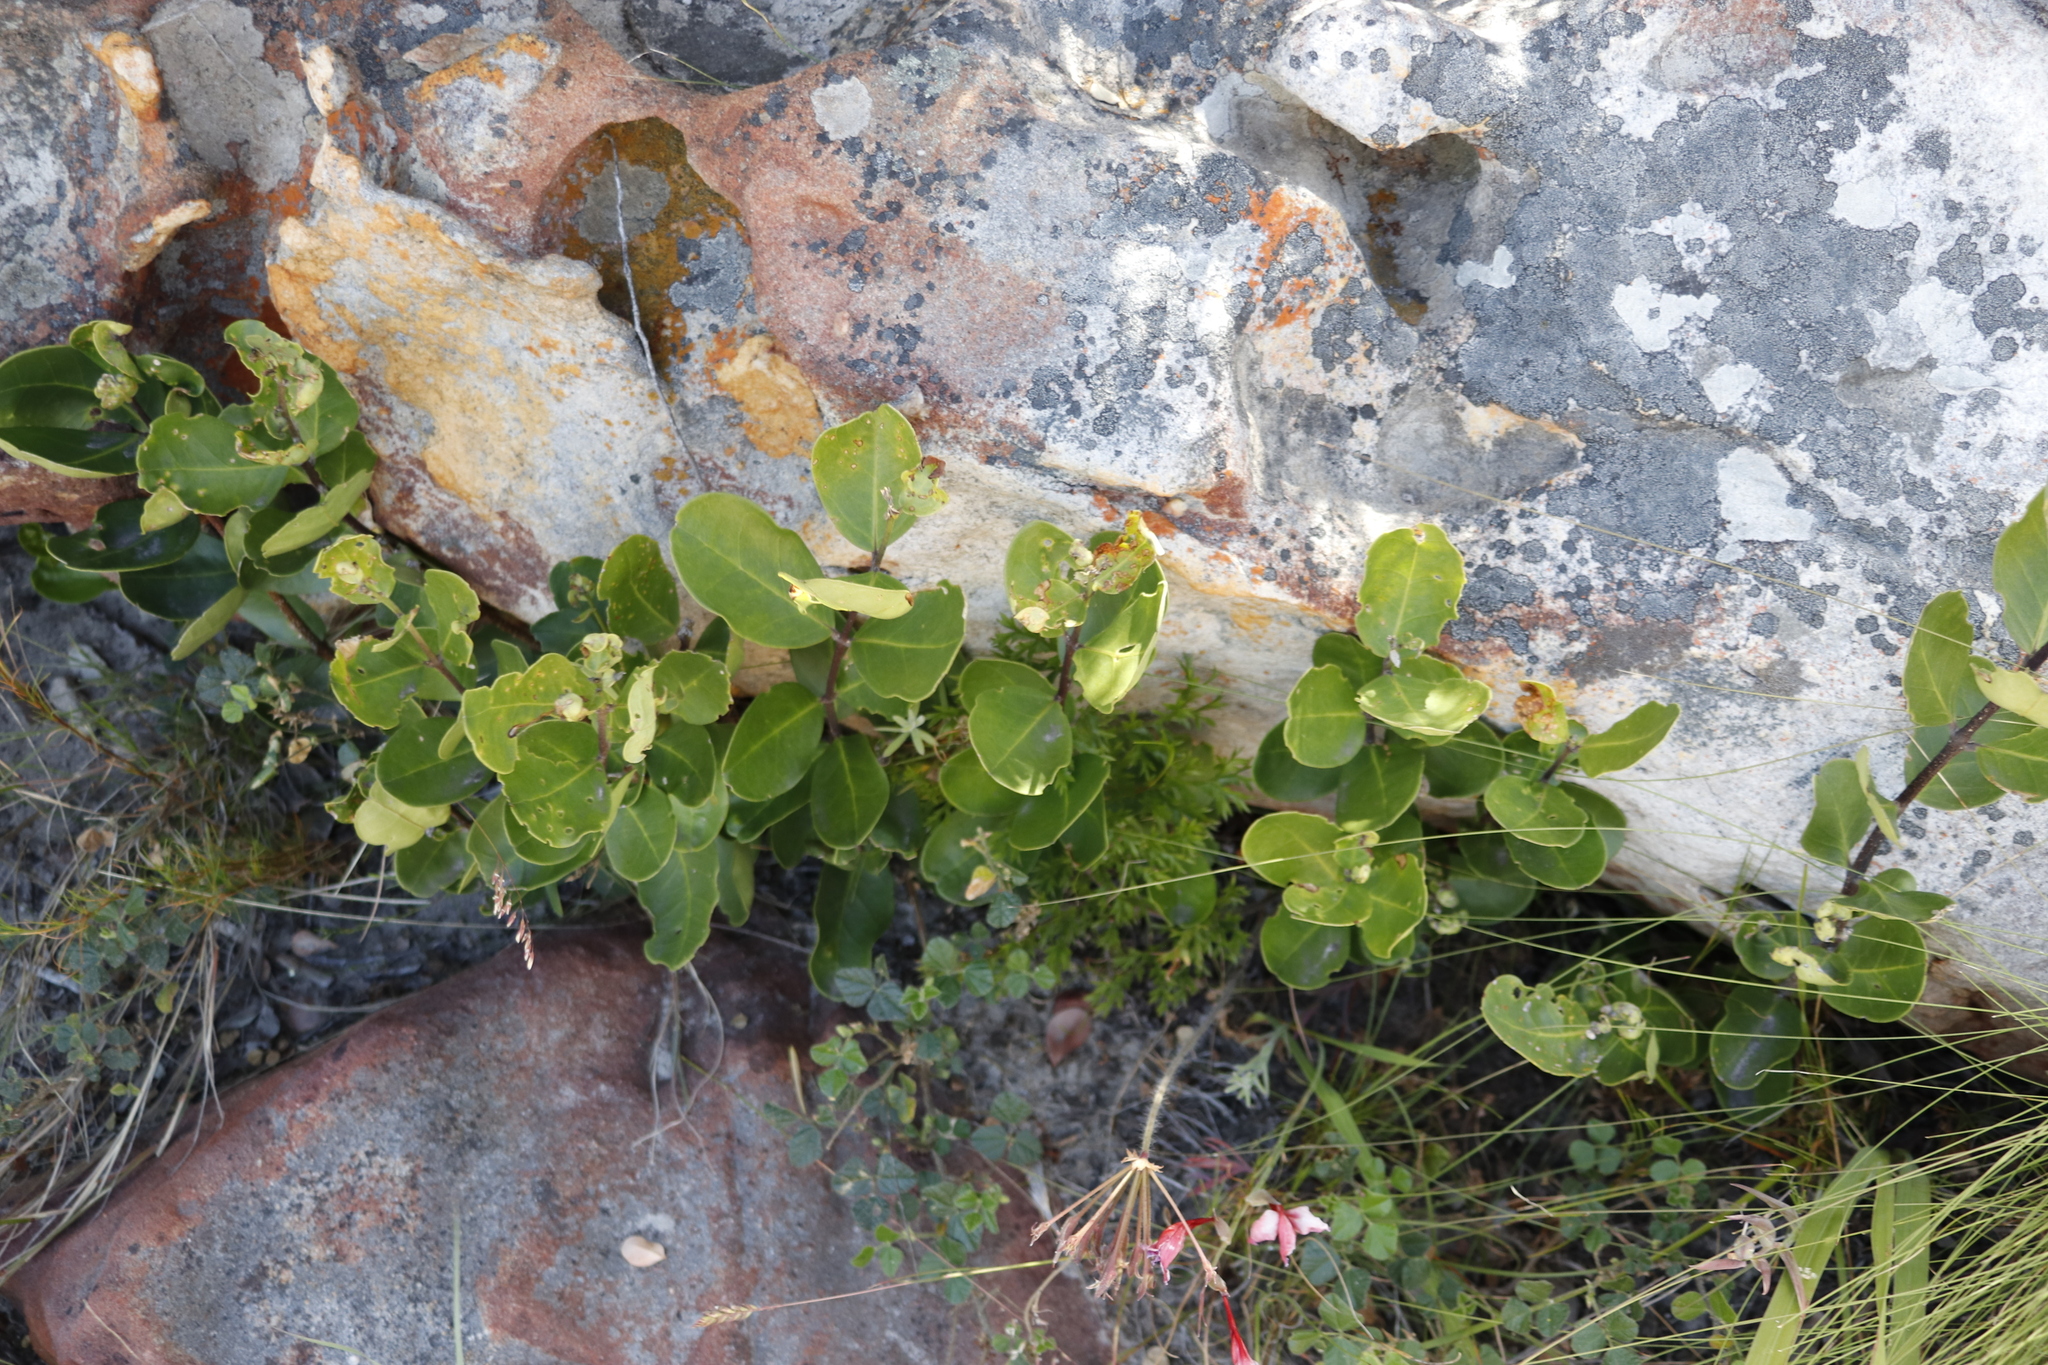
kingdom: Plantae
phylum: Tracheophyta
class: Magnoliopsida
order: Lamiales
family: Oleaceae
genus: Olea
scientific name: Olea capensis
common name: Black ironwood
